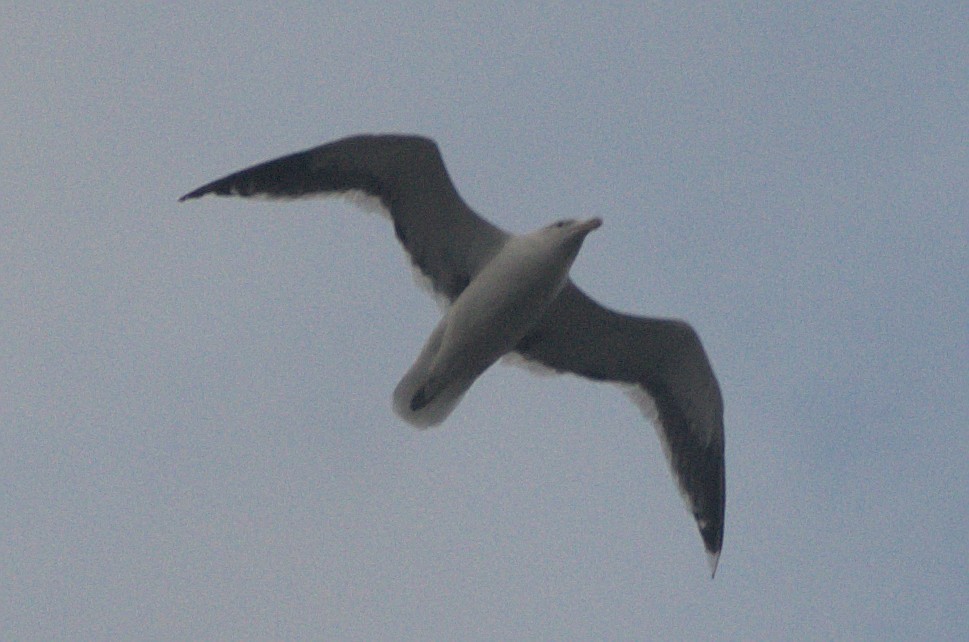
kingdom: Animalia
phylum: Chordata
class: Aves
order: Charadriiformes
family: Laridae
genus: Larus
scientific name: Larus dominicanus
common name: Kelp gull
